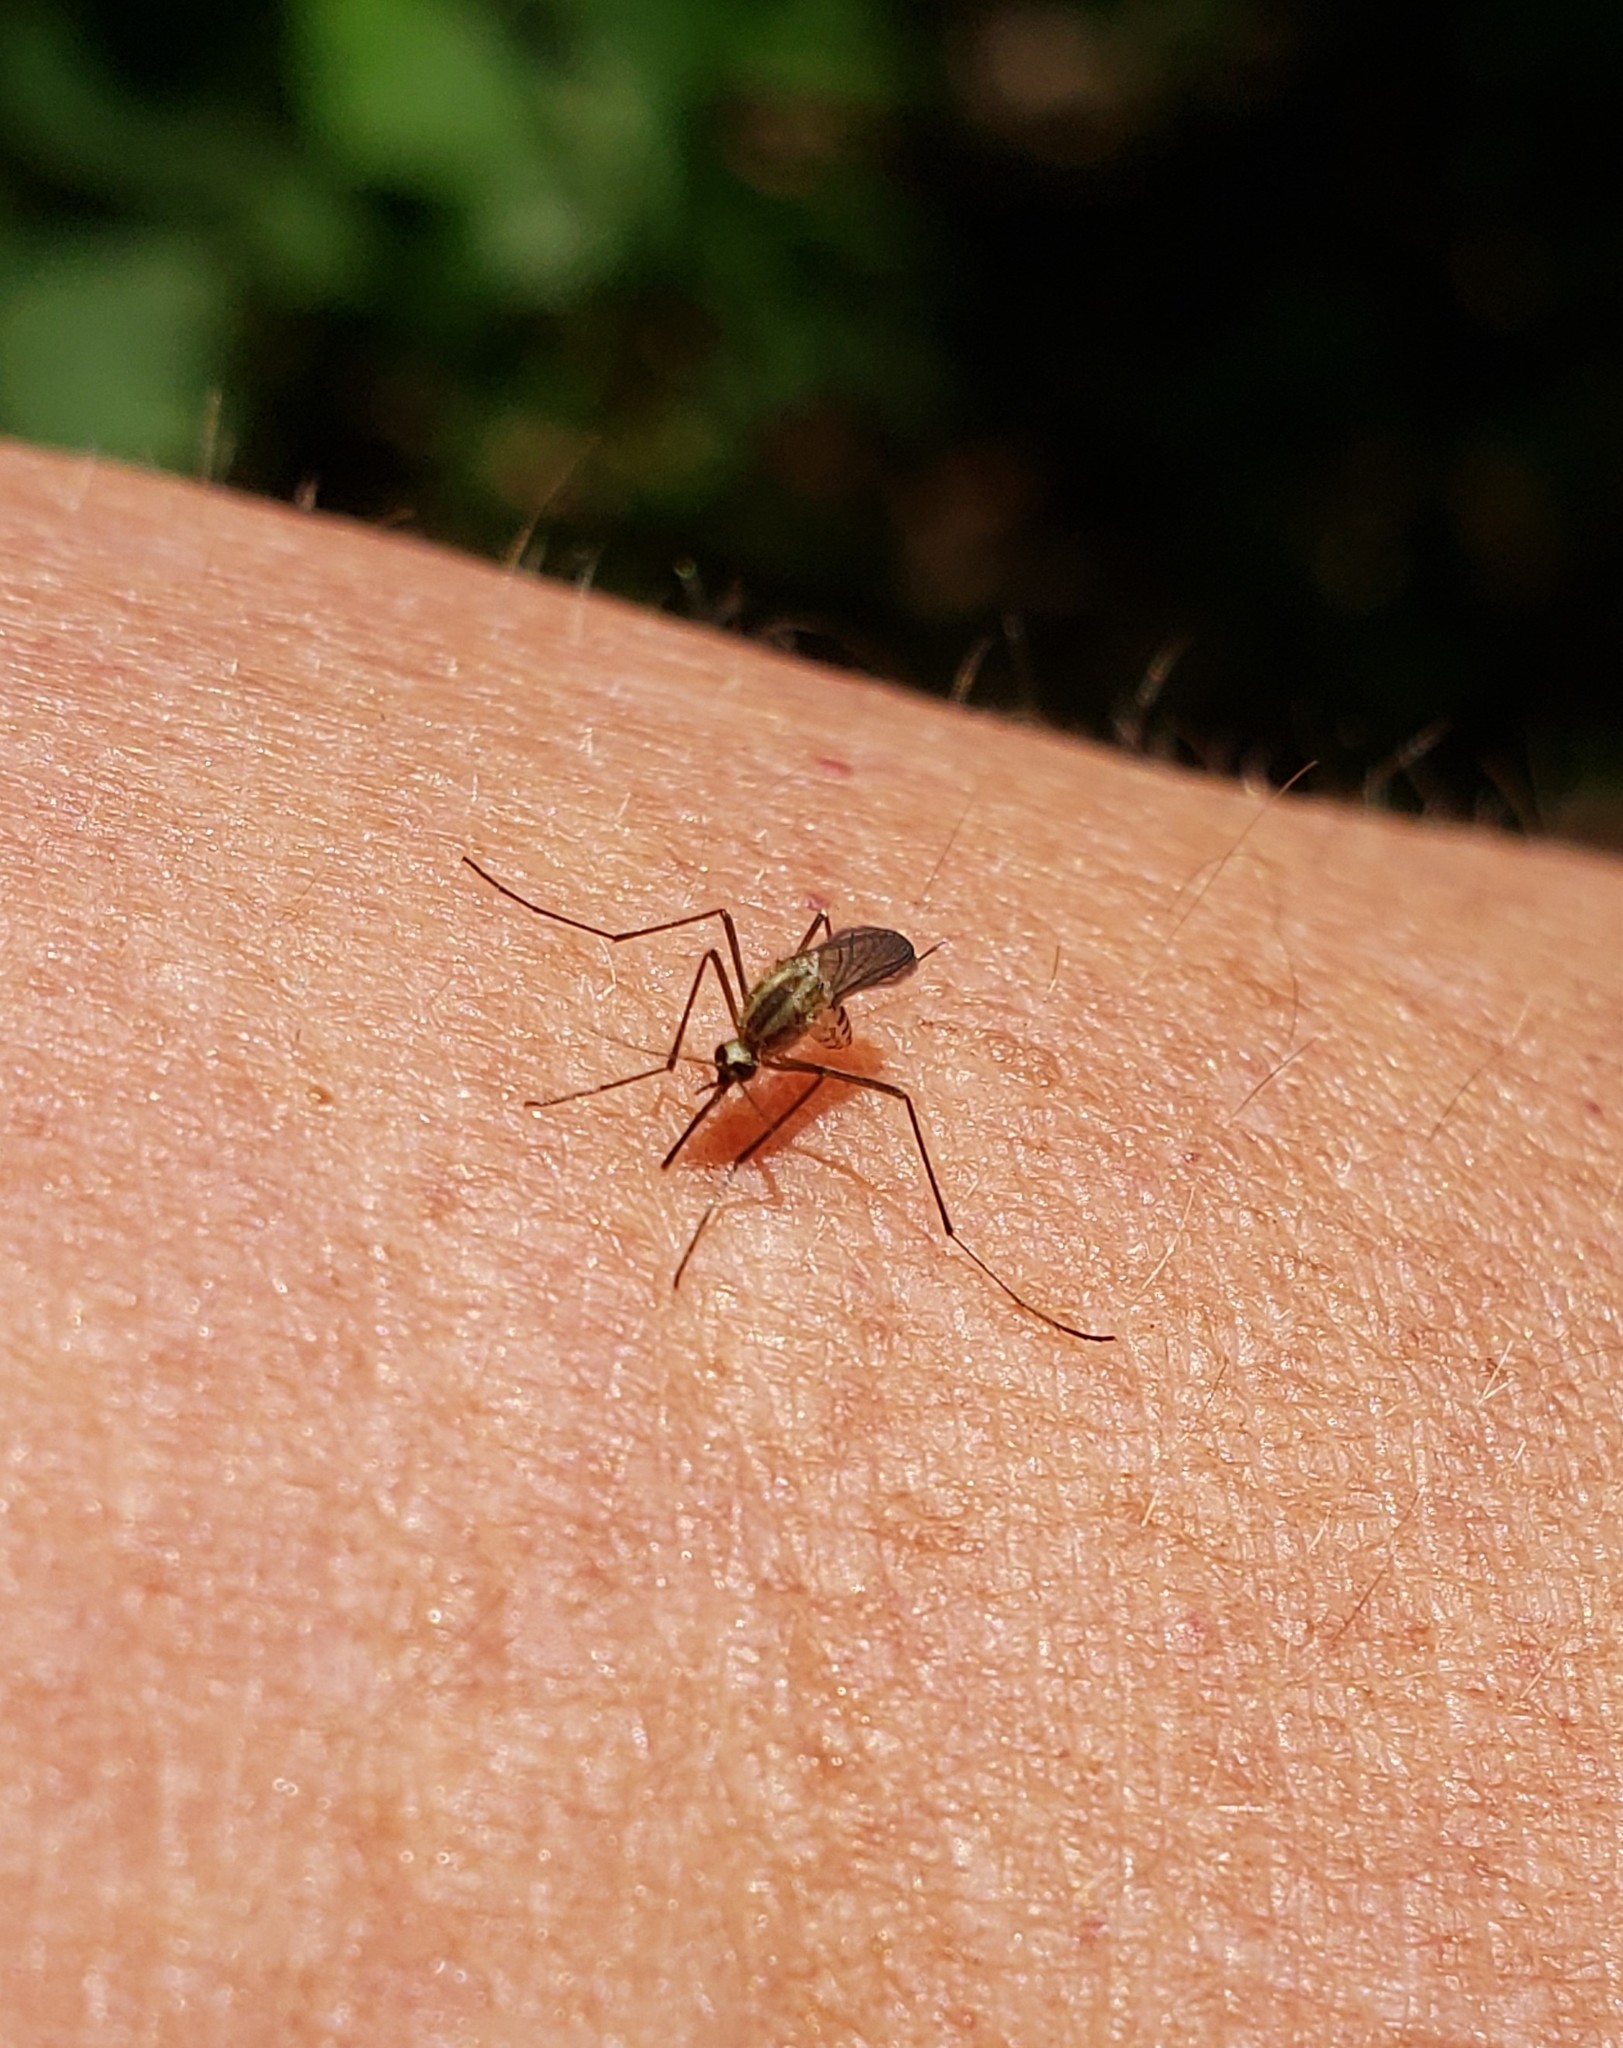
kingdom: Animalia
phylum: Arthropoda
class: Insecta
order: Diptera
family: Culicidae
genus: Aedes
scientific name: Aedes trivittatus
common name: Plains floodwater mosquito
